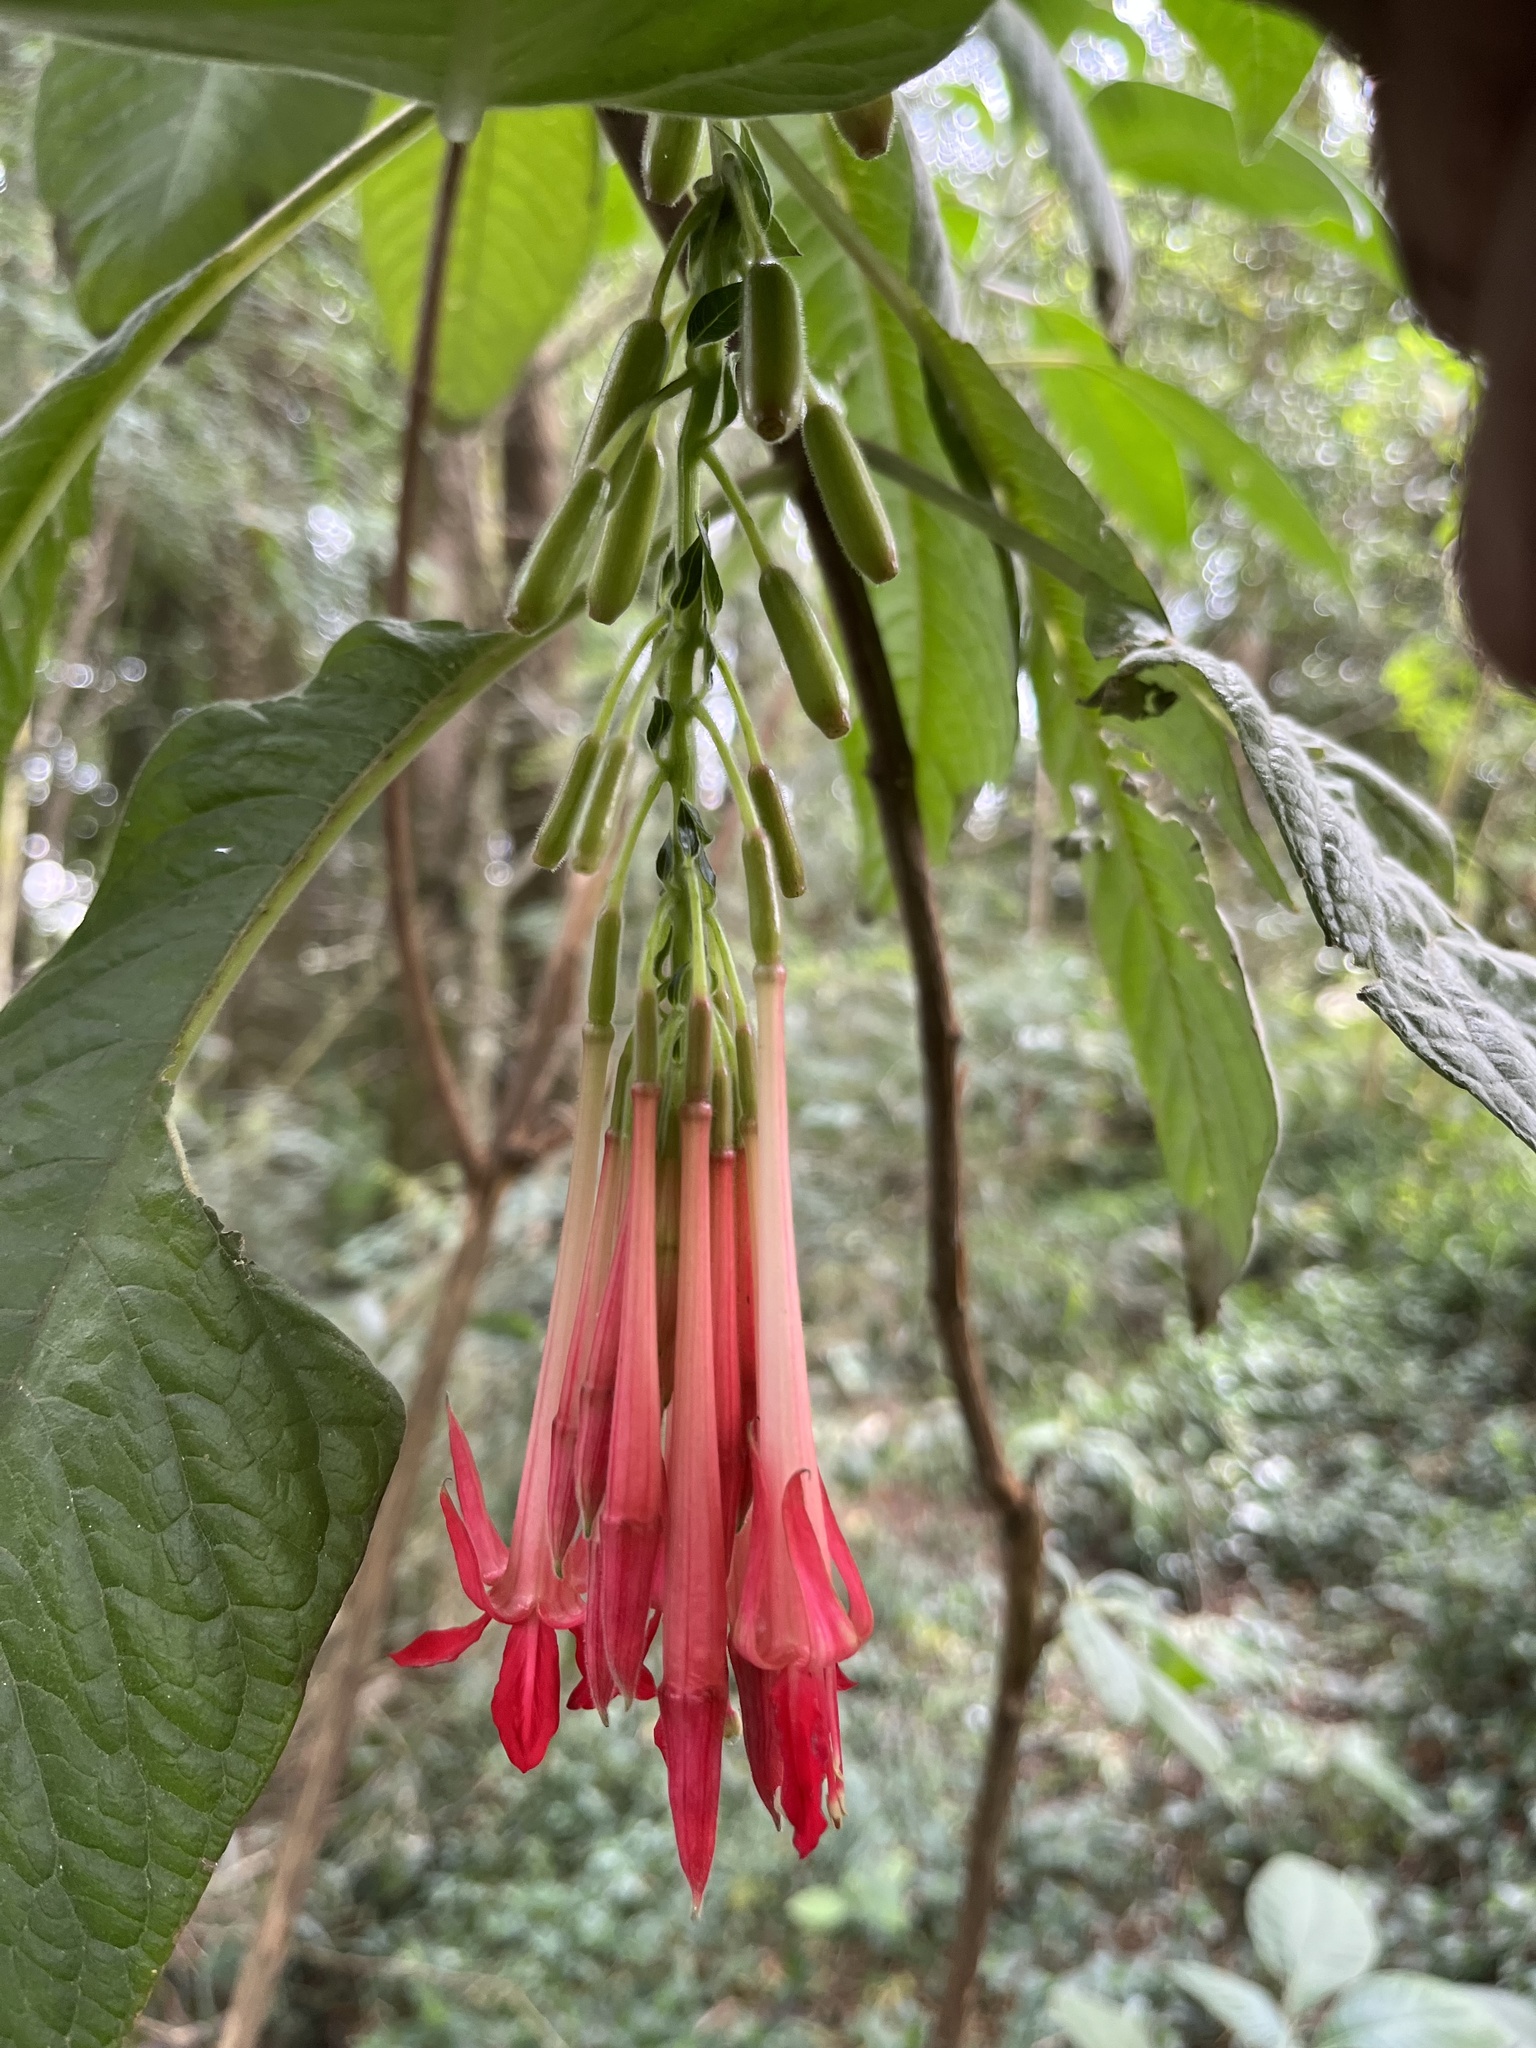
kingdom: Plantae
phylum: Tracheophyta
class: Magnoliopsida
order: Myrtales
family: Onagraceae
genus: Fuchsia
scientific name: Fuchsia boliviana
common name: Bolivian fuchsia
